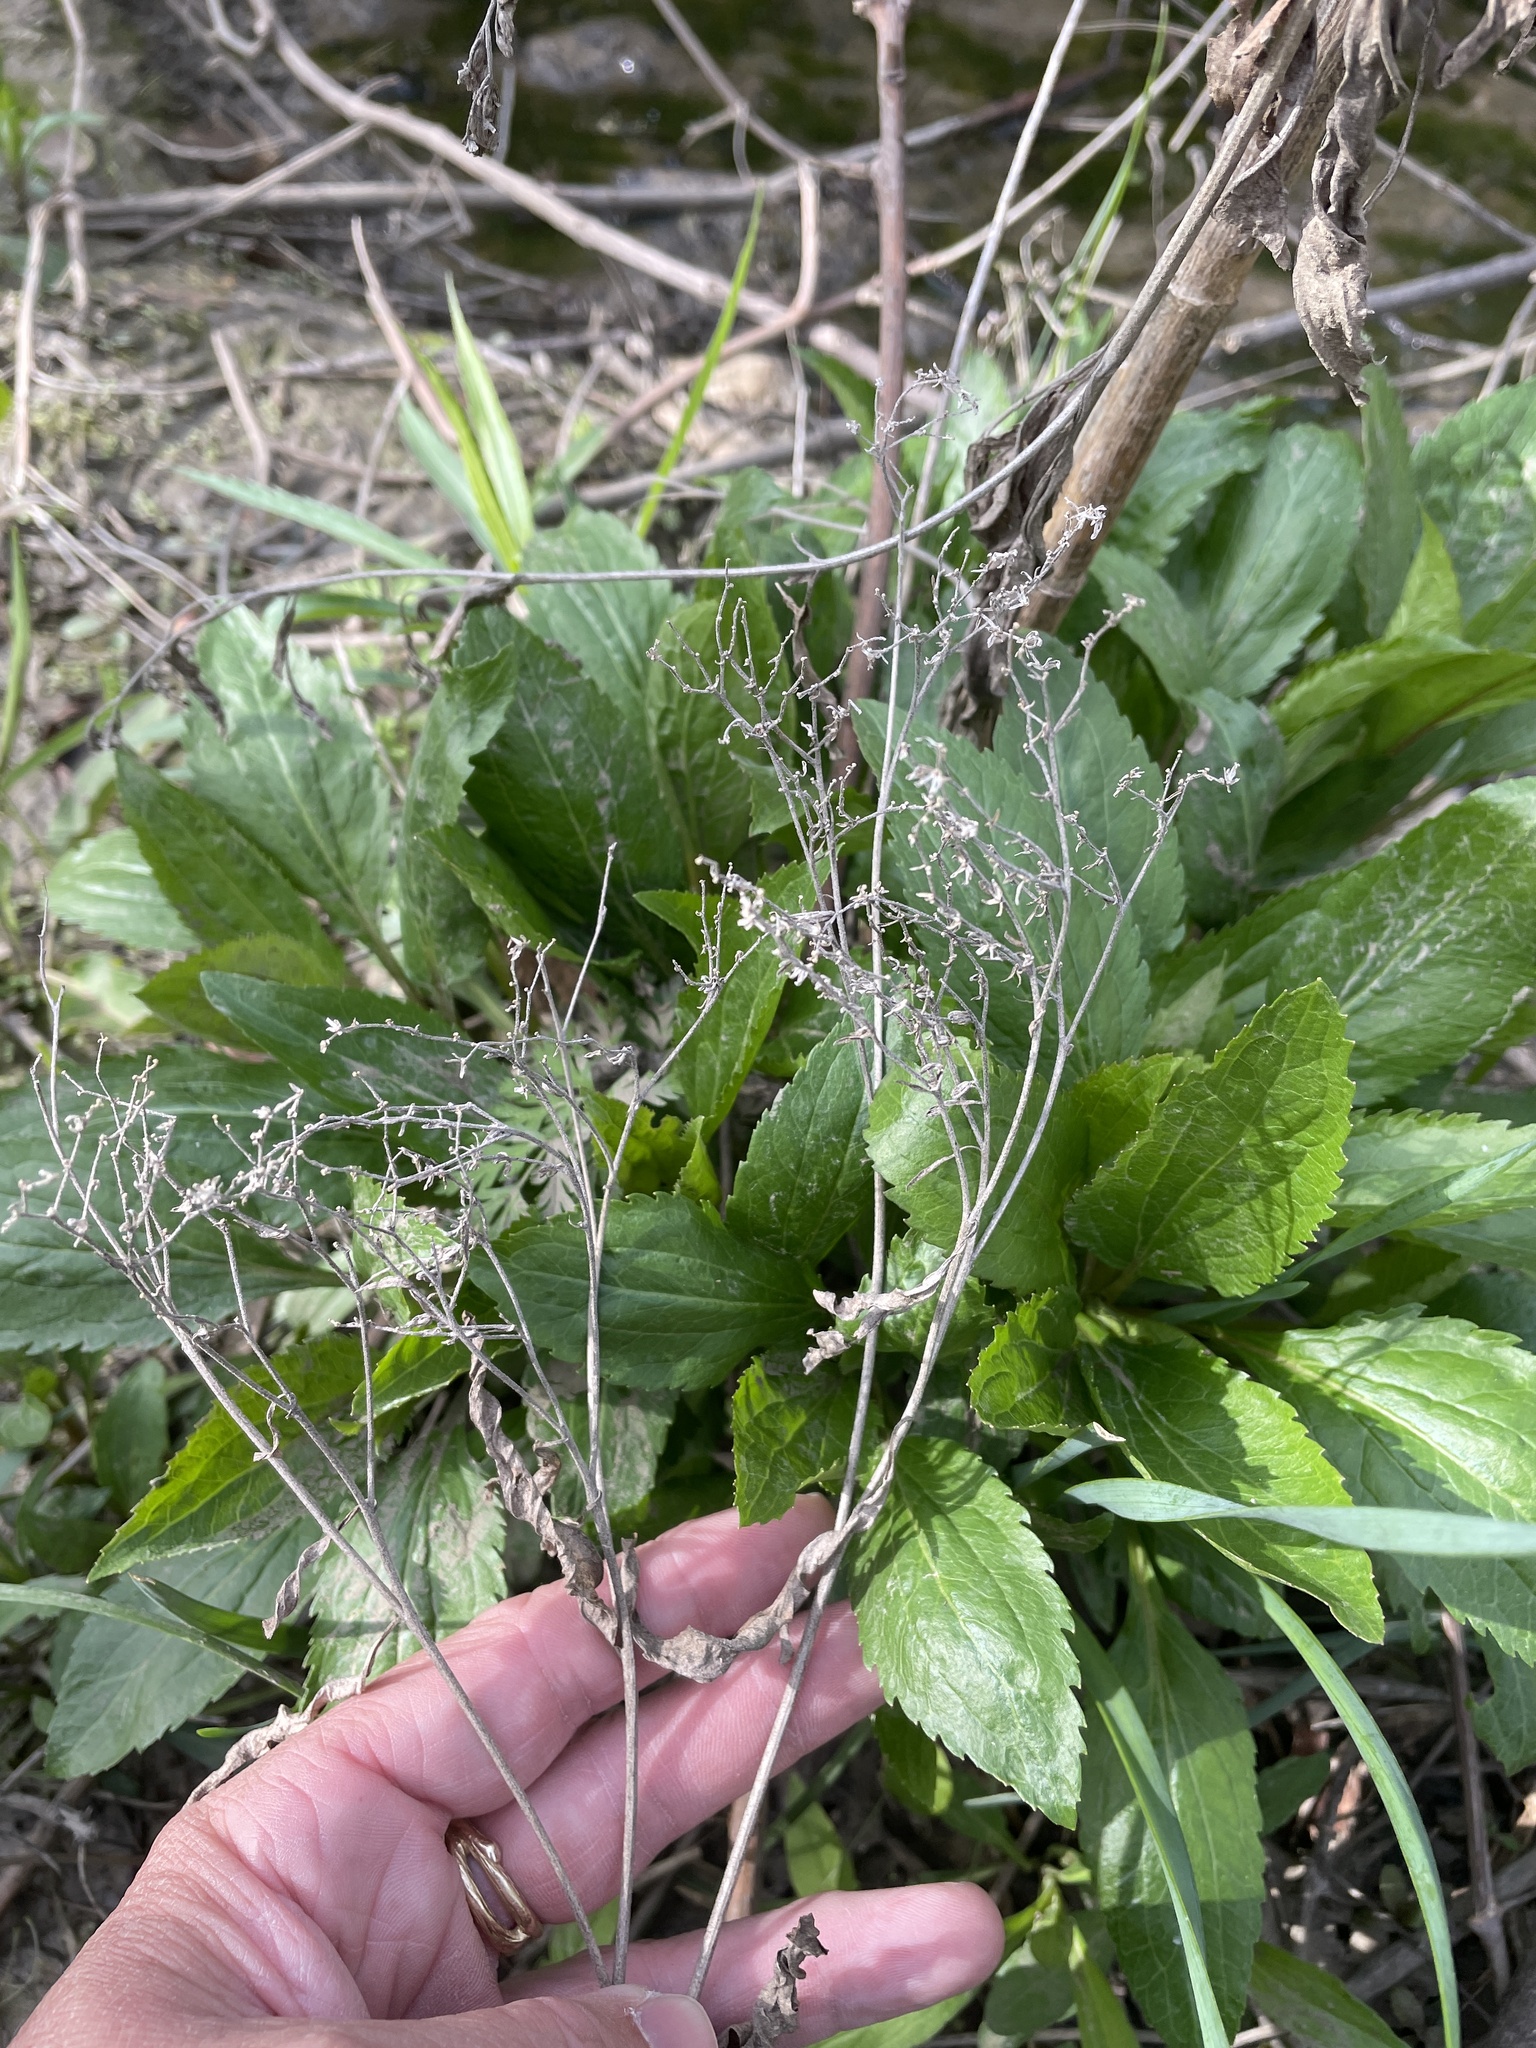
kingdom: Plantae
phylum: Tracheophyta
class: Magnoliopsida
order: Asterales
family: Asteraceae
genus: Eupatorium
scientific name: Eupatorium serotinum
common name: Late boneset
